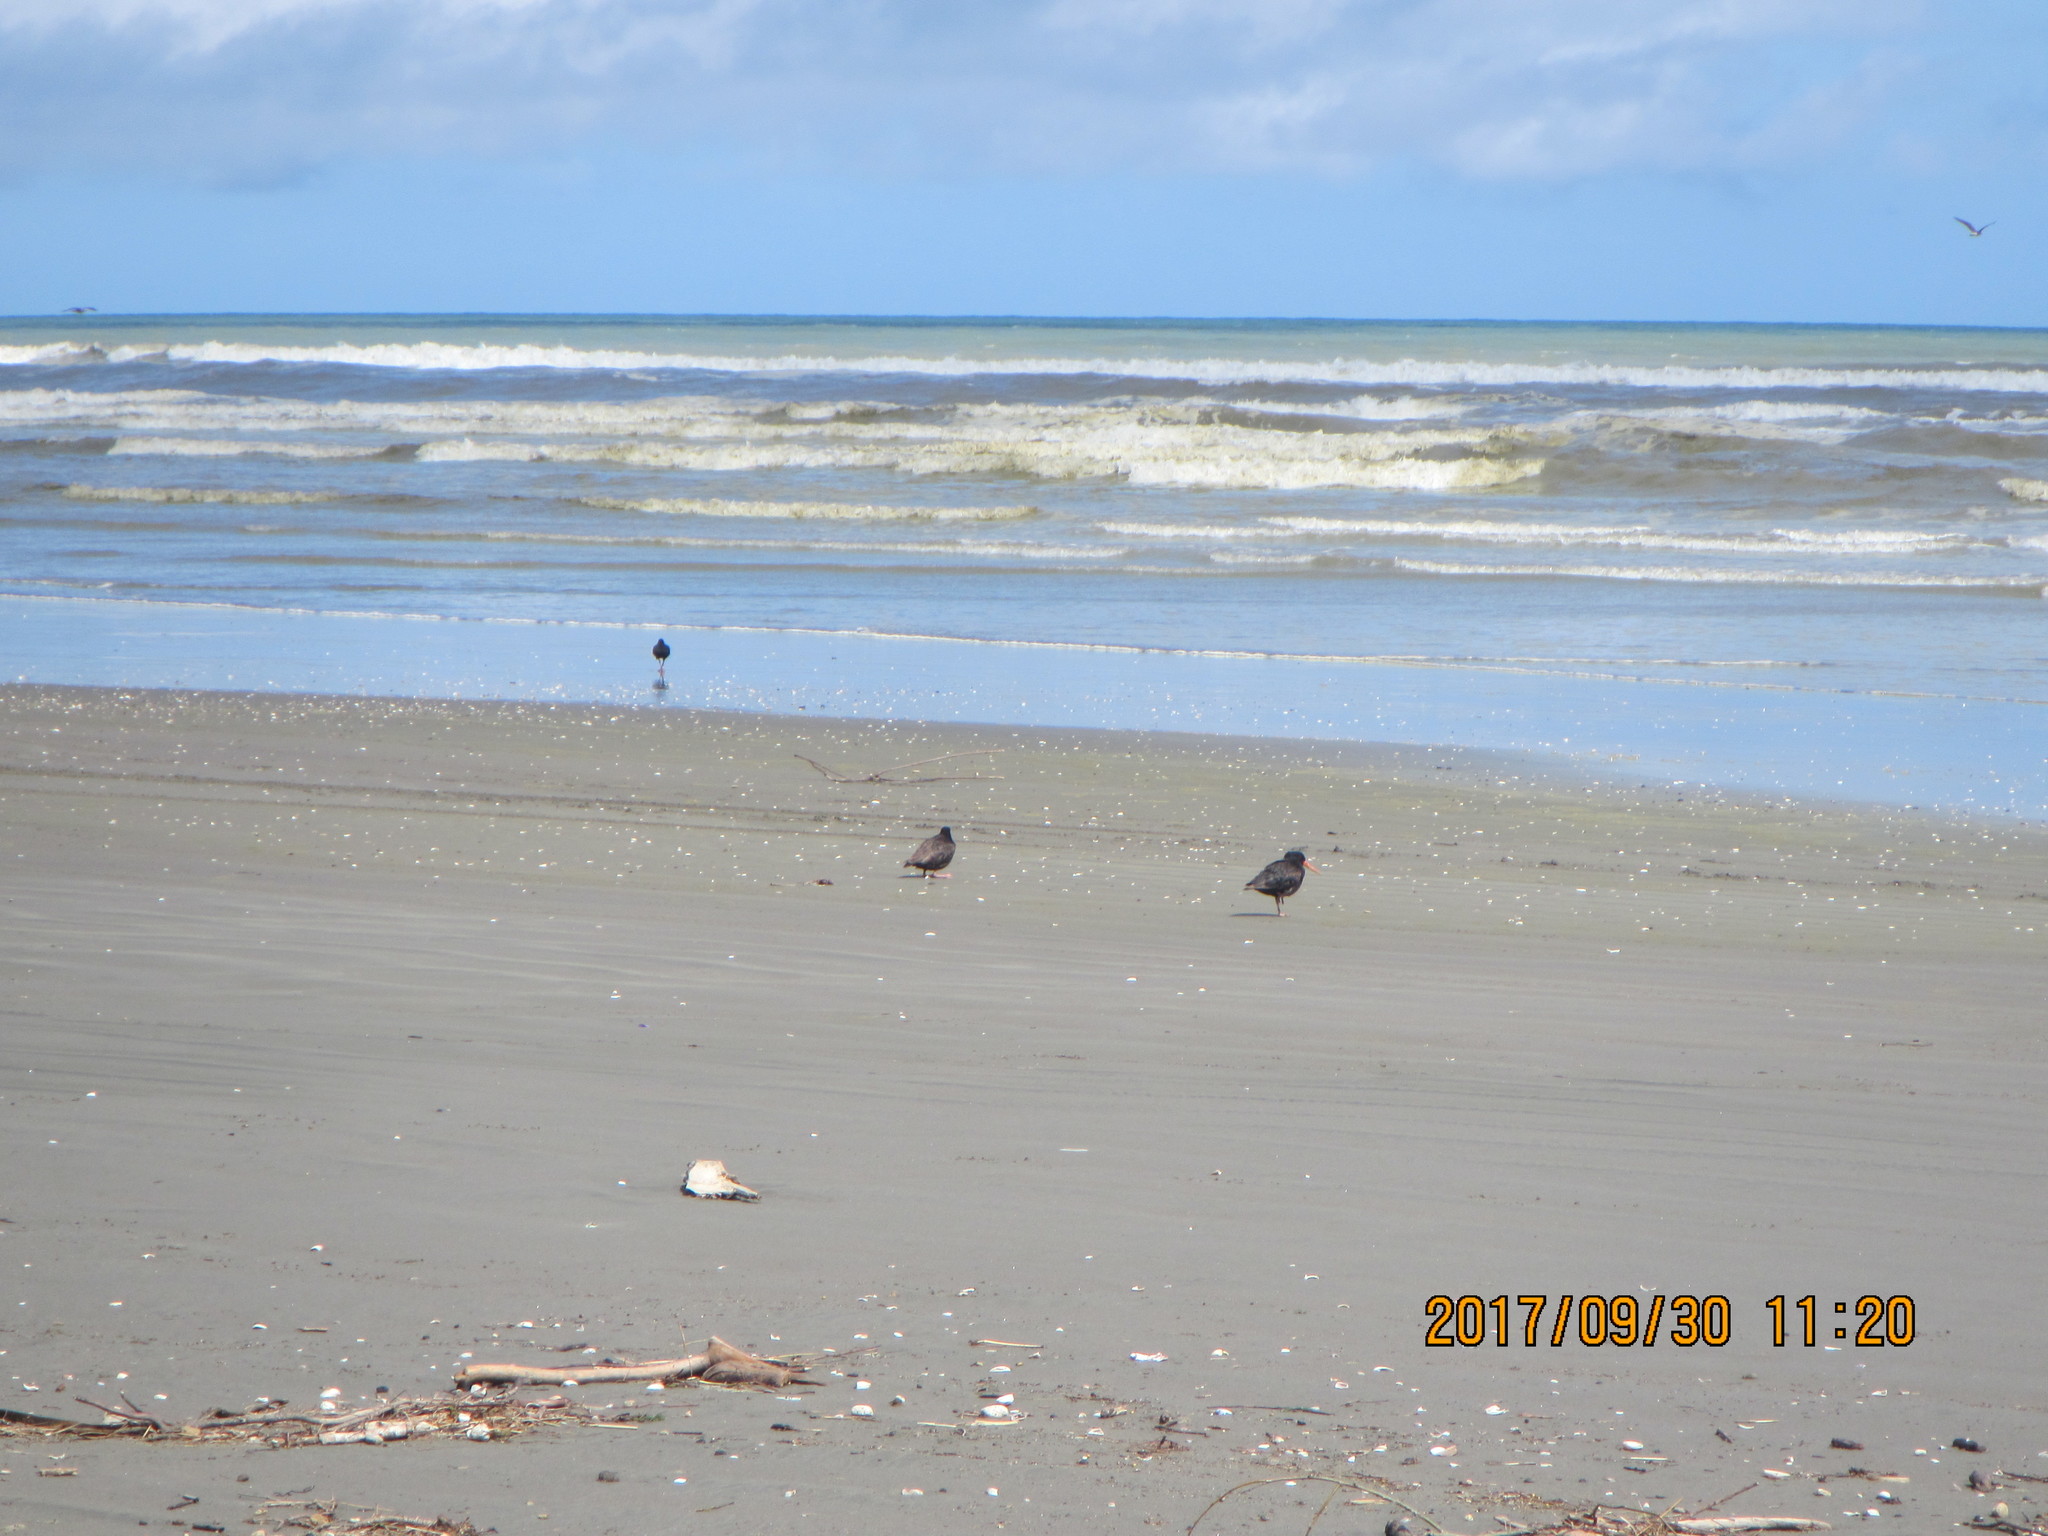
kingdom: Animalia
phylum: Chordata
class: Aves
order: Charadriiformes
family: Haematopodidae
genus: Haematopus
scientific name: Haematopus unicolor
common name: Variable oystercatcher
